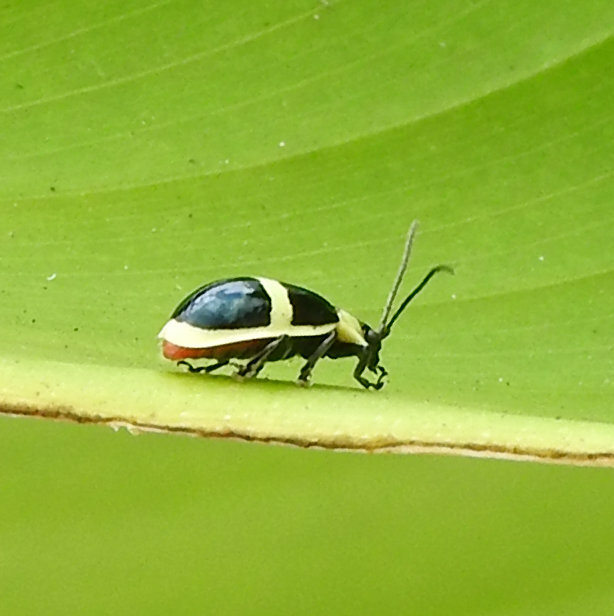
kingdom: Animalia
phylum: Arthropoda
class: Insecta
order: Coleoptera
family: Chrysomelidae
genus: Asphaera
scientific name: Asphaera
